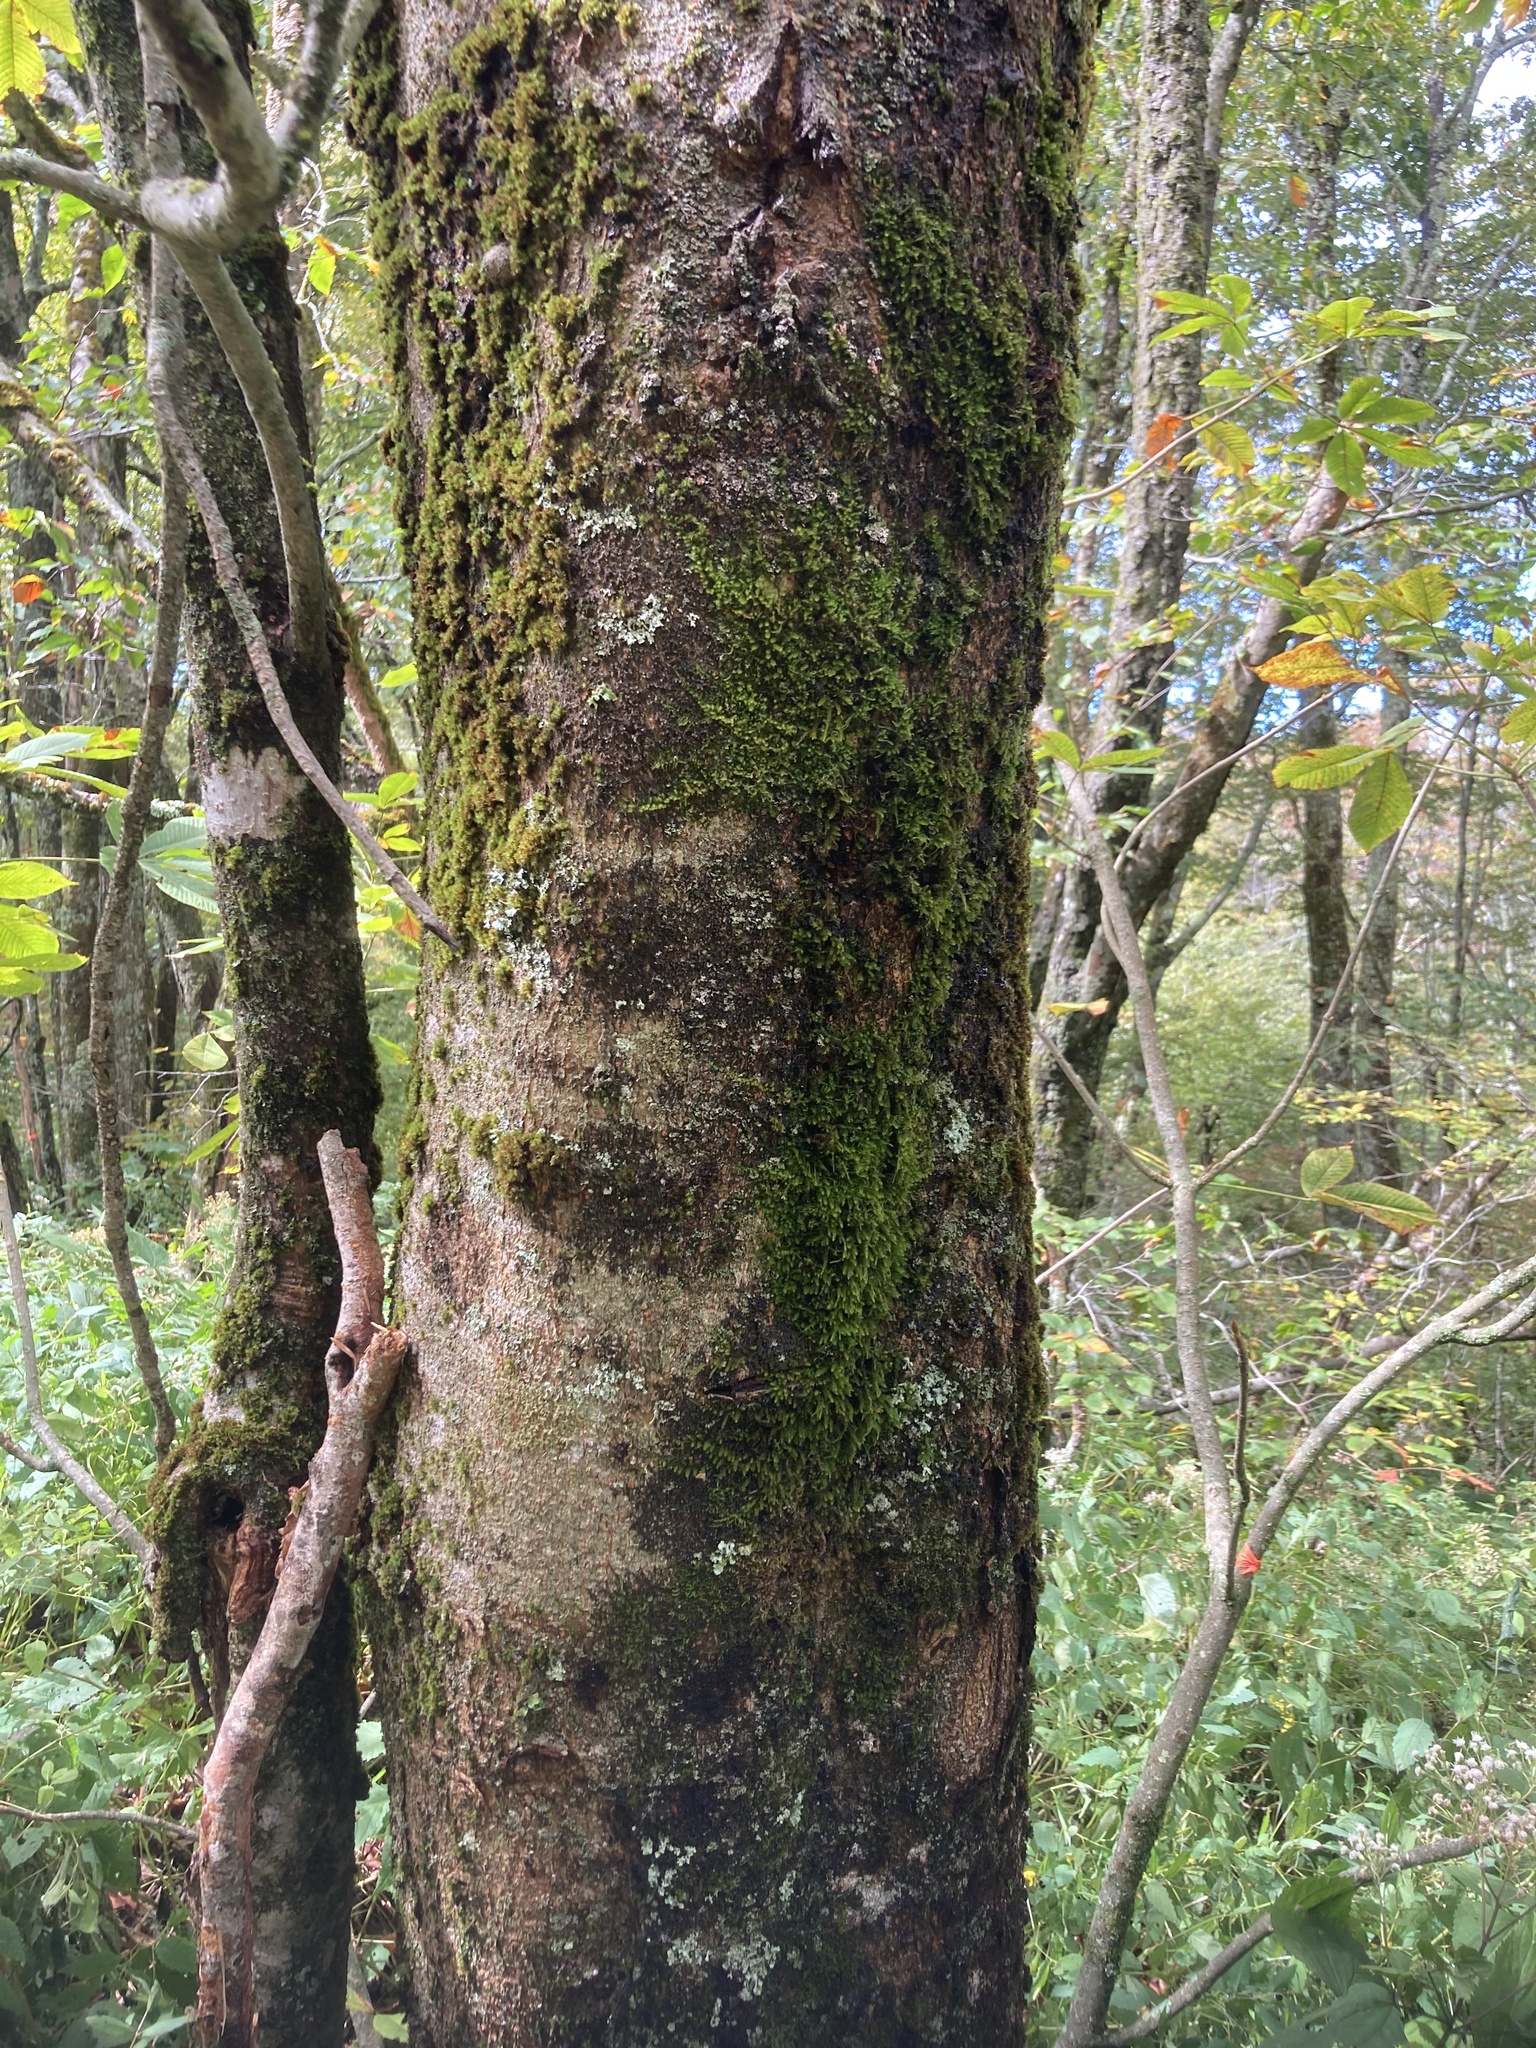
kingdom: Plantae
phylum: Tracheophyta
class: Magnoliopsida
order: Sapindales
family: Sapindaceae
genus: Aesculus
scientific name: Aesculus flava
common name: Yellow buckeye
